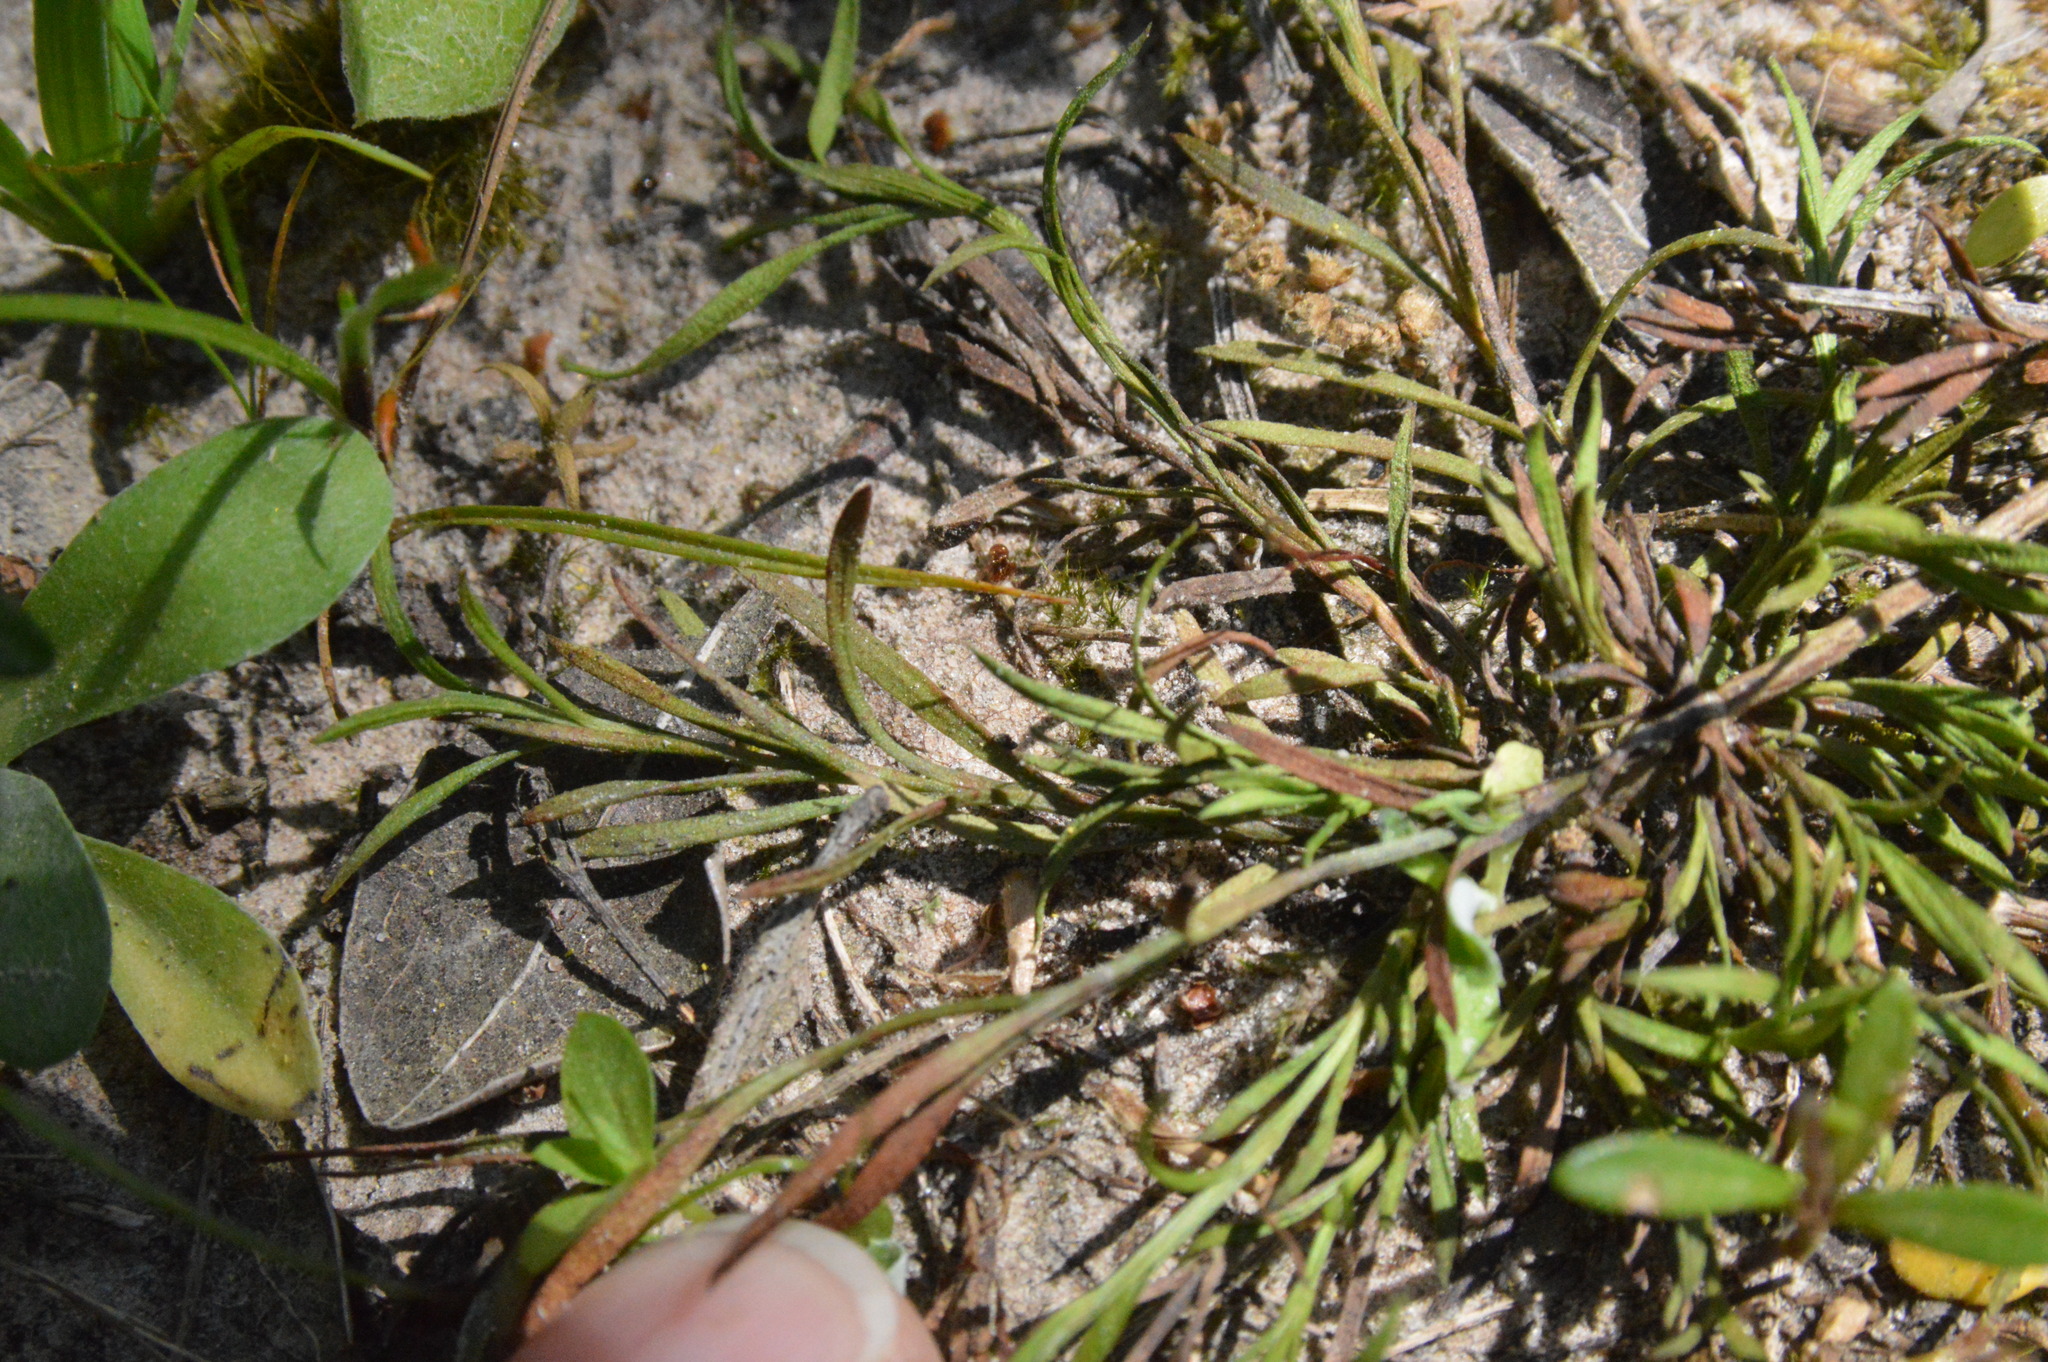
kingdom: Plantae
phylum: Tracheophyta
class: Magnoliopsida
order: Lamiales
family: Tetrachondraceae
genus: Polypremum
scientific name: Polypremum procumbens
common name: Juniper-leaf
